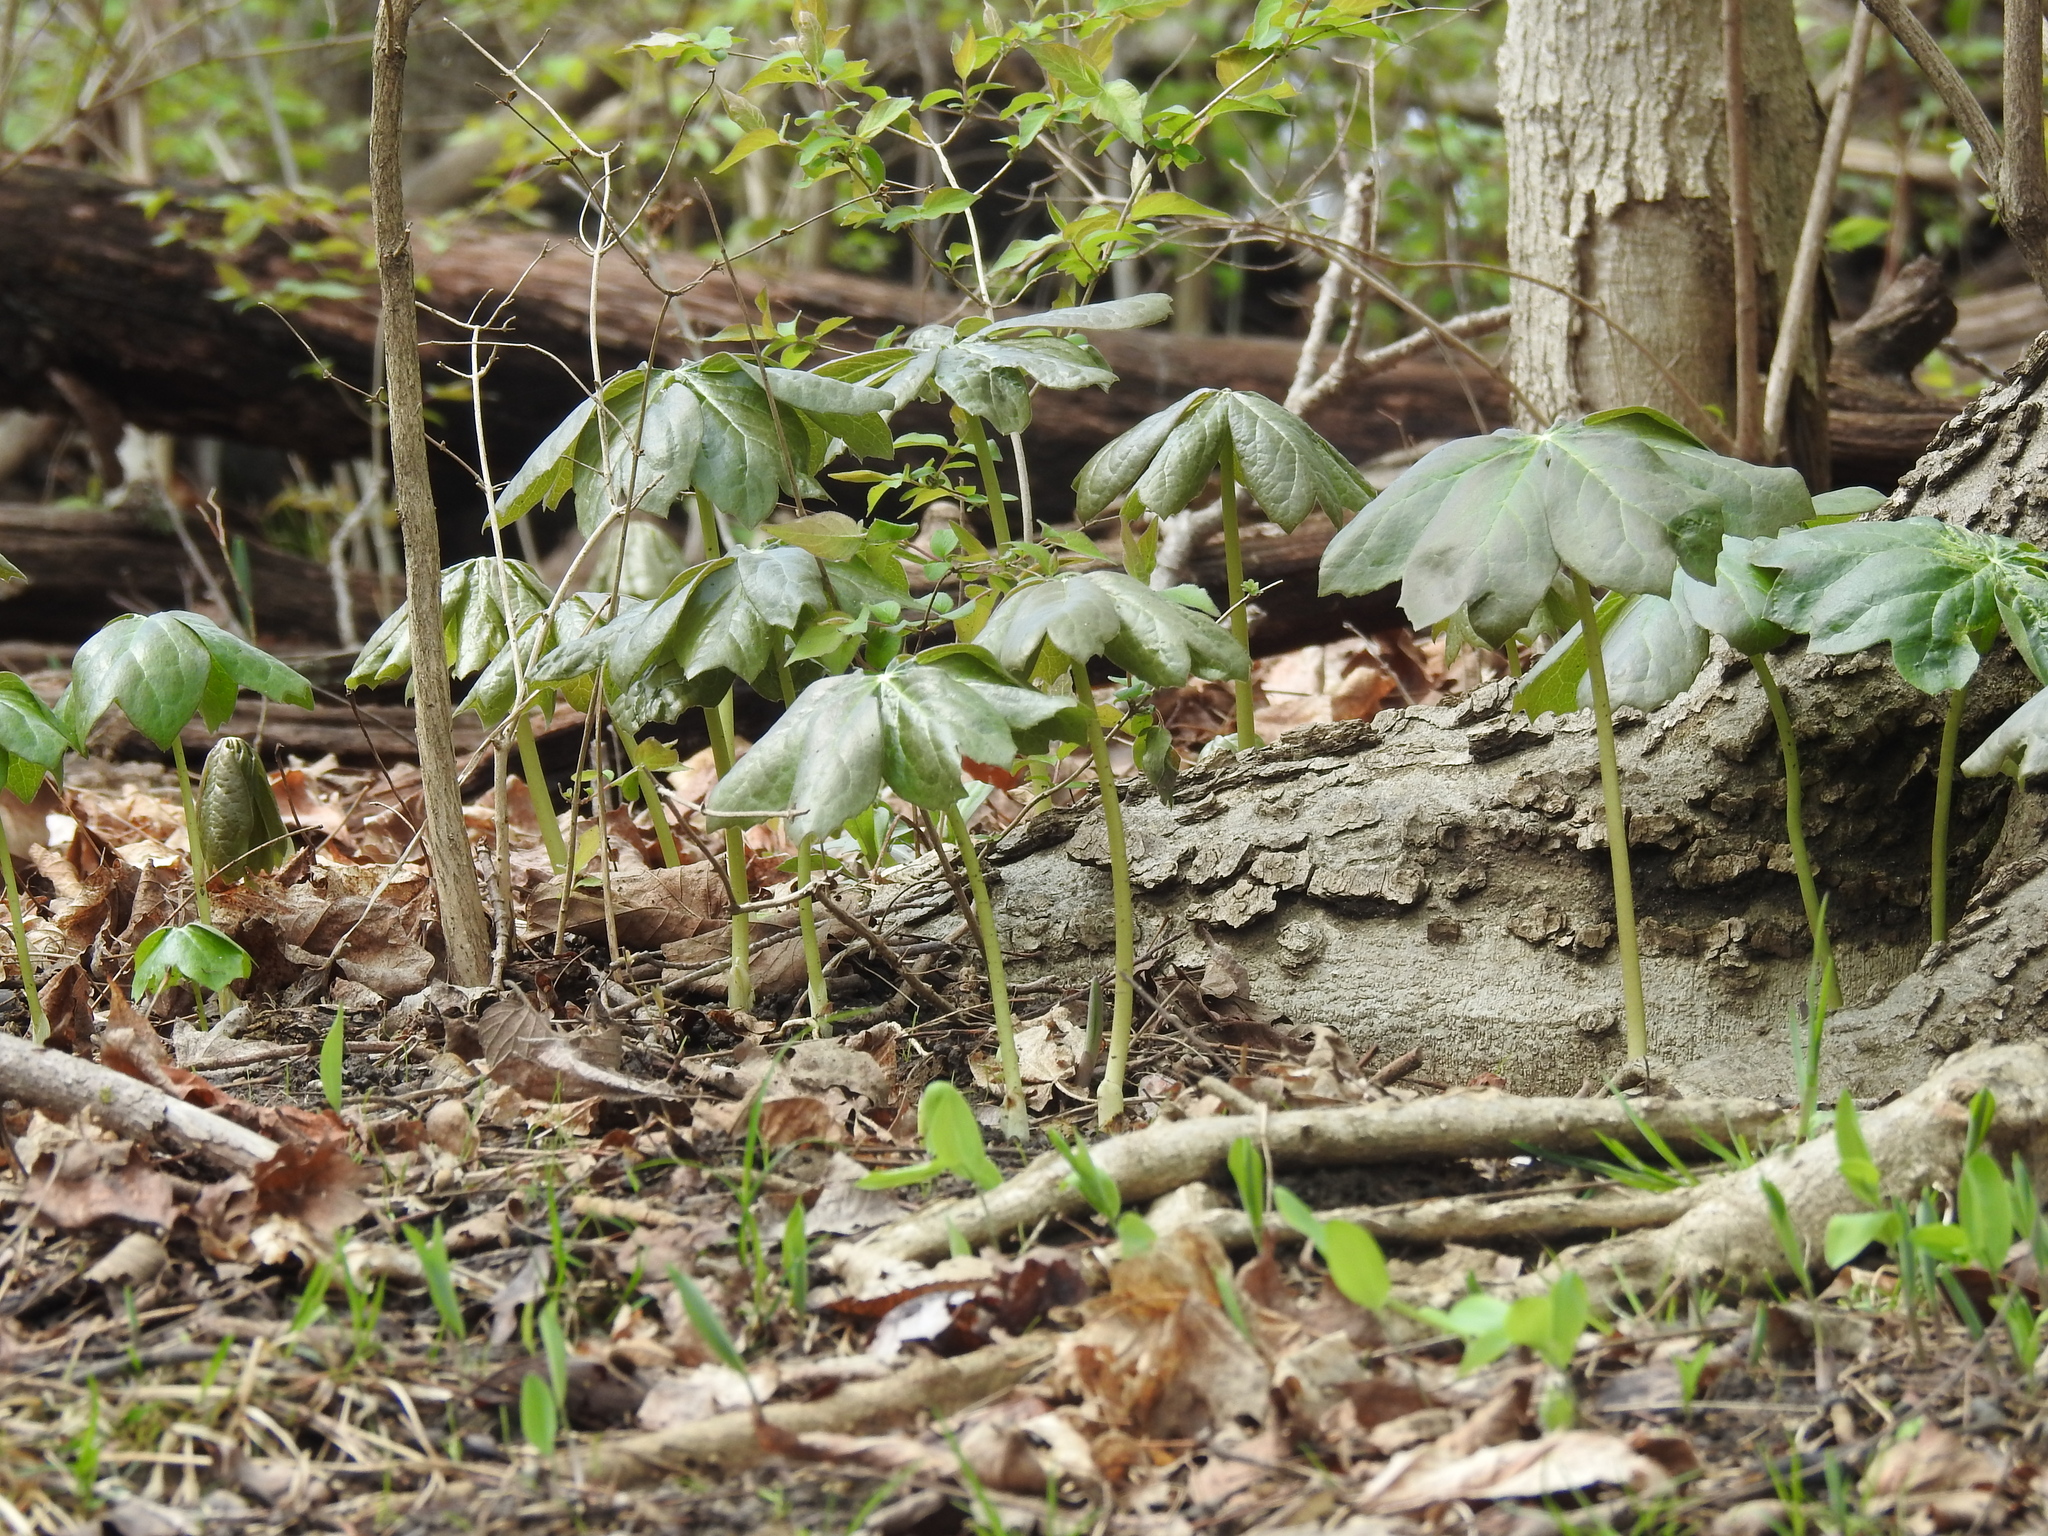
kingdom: Plantae
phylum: Tracheophyta
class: Magnoliopsida
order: Ranunculales
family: Berberidaceae
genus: Podophyllum
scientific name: Podophyllum peltatum
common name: Wild mandrake
